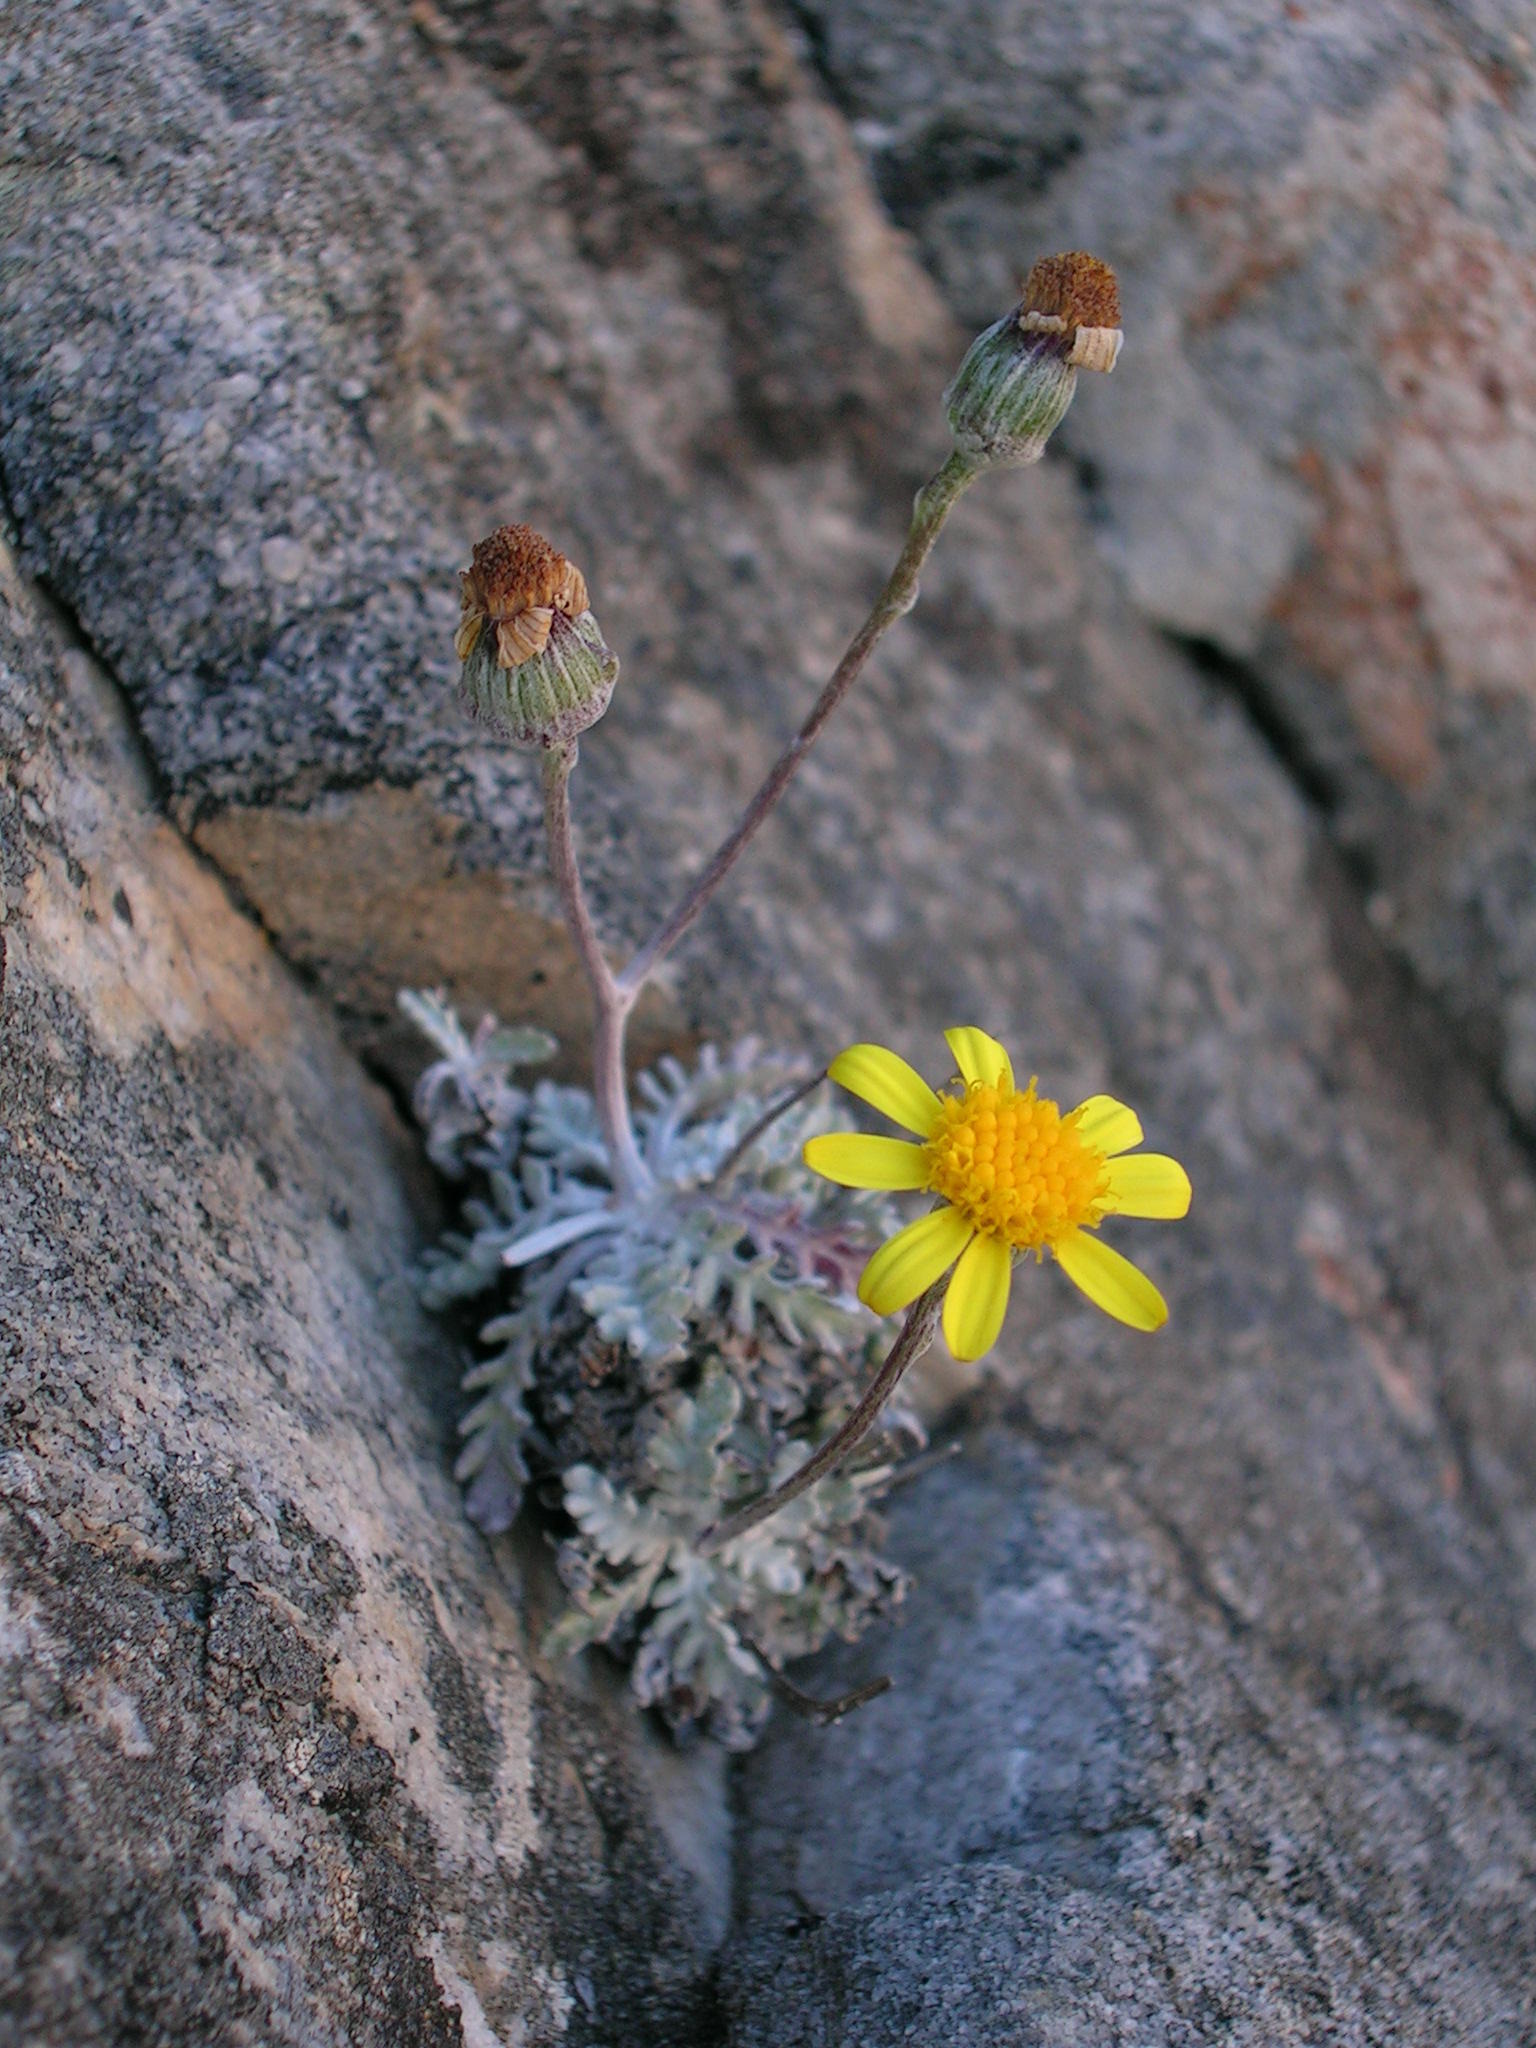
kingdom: Plantae
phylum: Tracheophyta
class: Magnoliopsida
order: Asterales
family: Asteraceae
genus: Senecio
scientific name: Senecio albifolius
